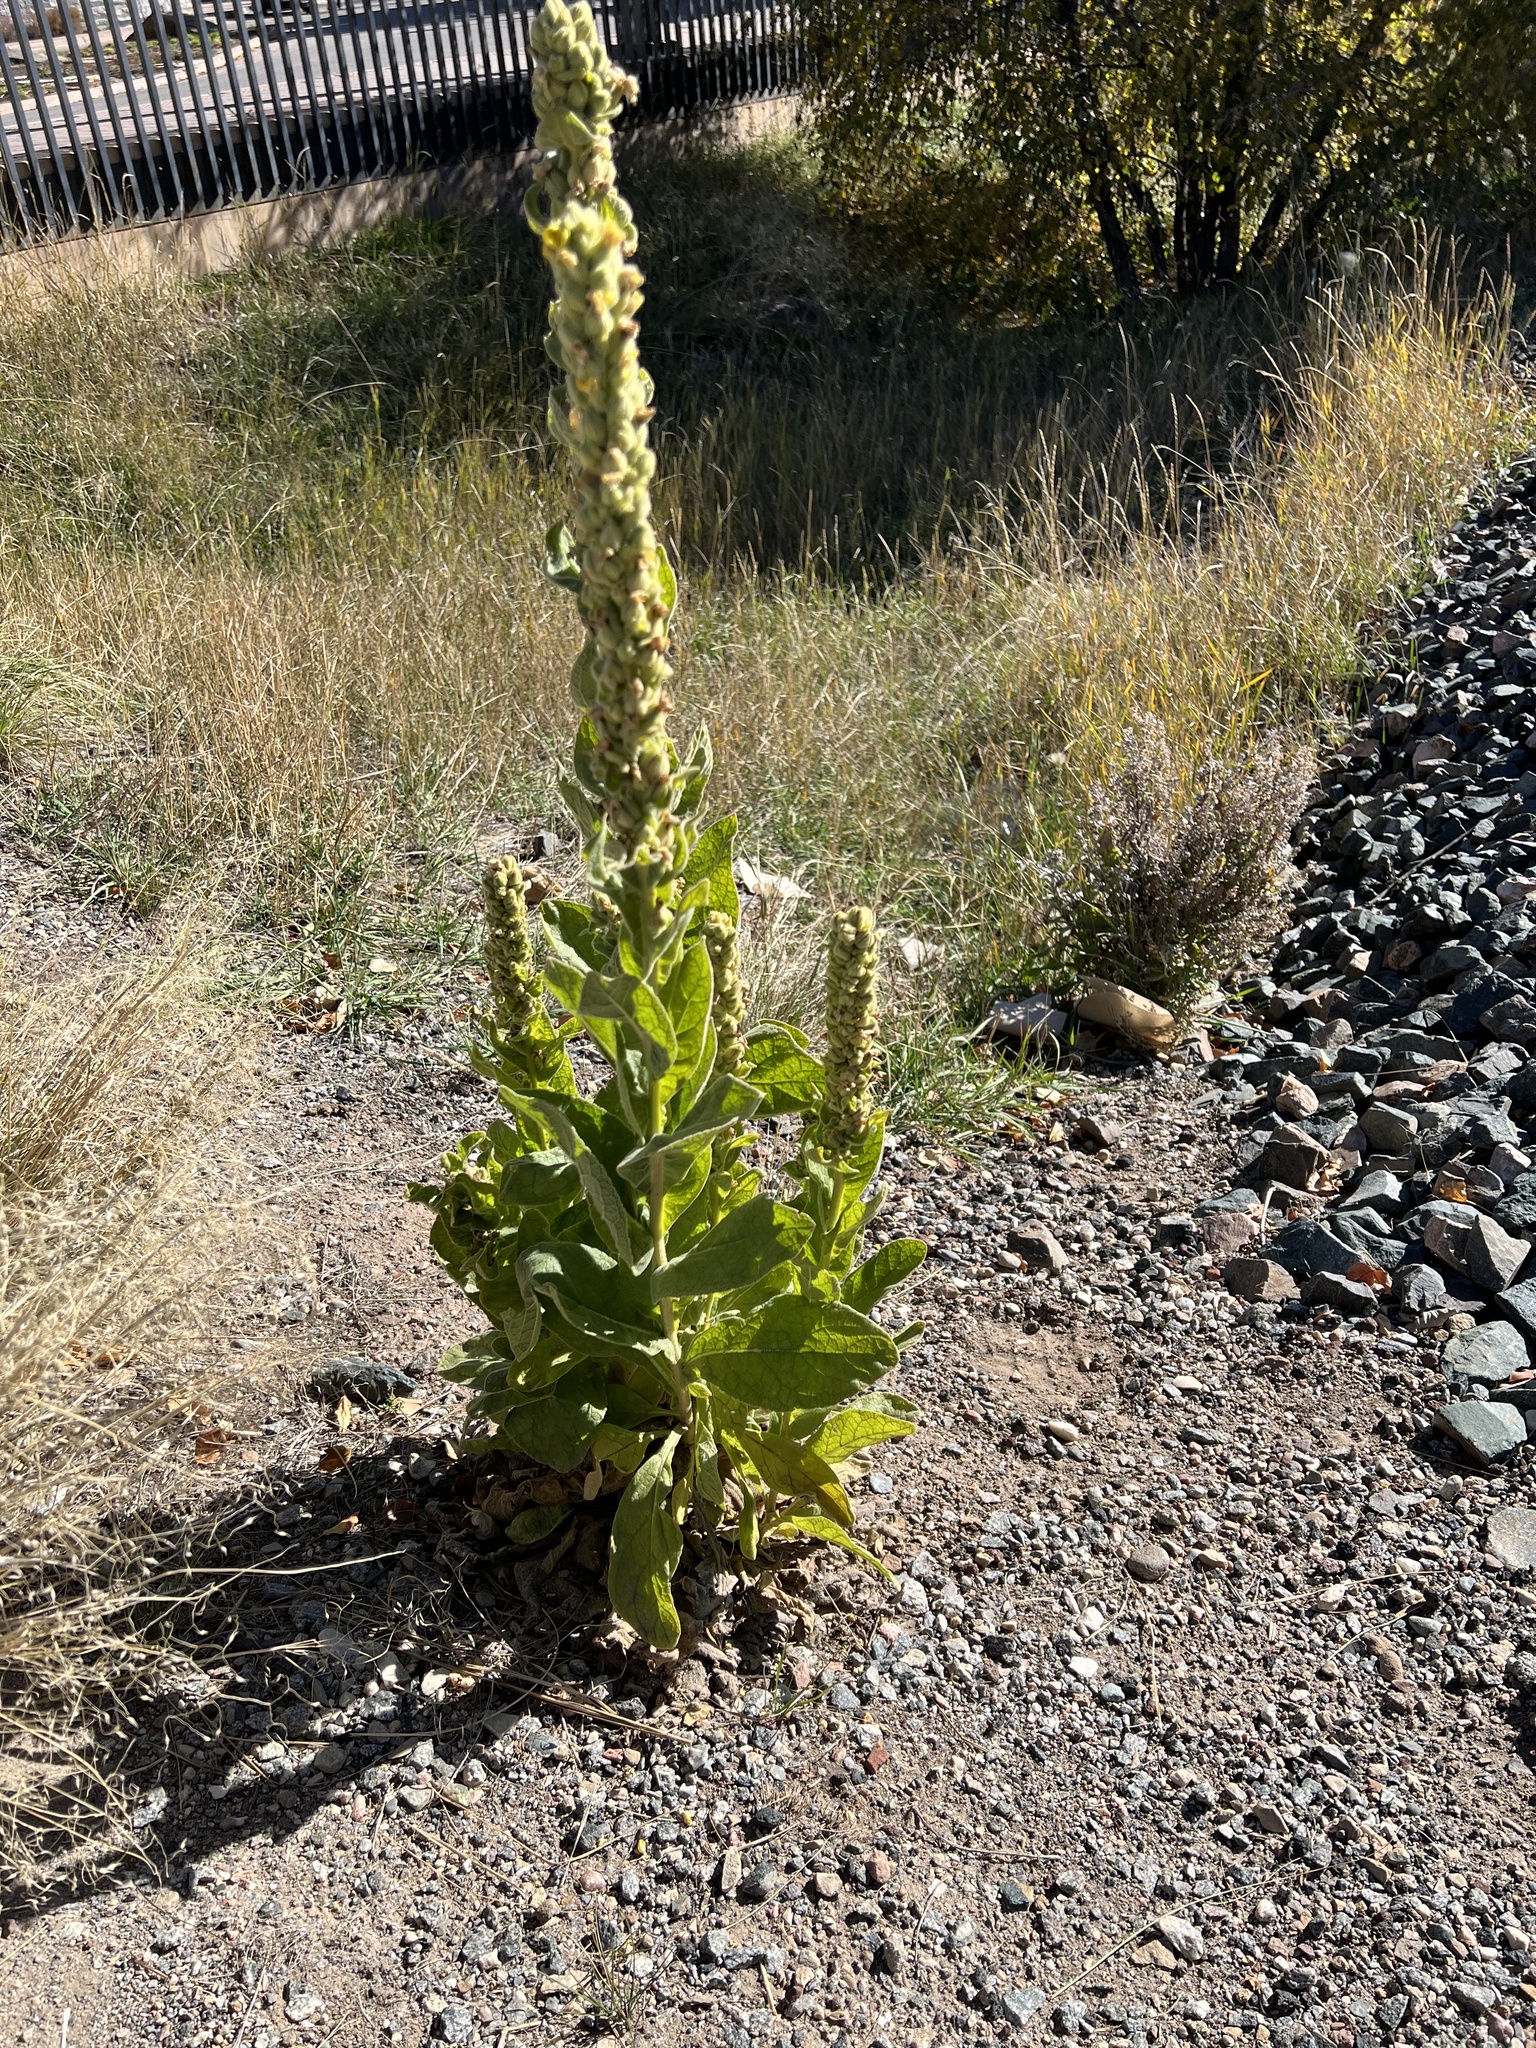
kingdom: Plantae
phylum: Tracheophyta
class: Magnoliopsida
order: Lamiales
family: Scrophulariaceae
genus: Verbascum
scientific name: Verbascum thapsus
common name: Common mullein
